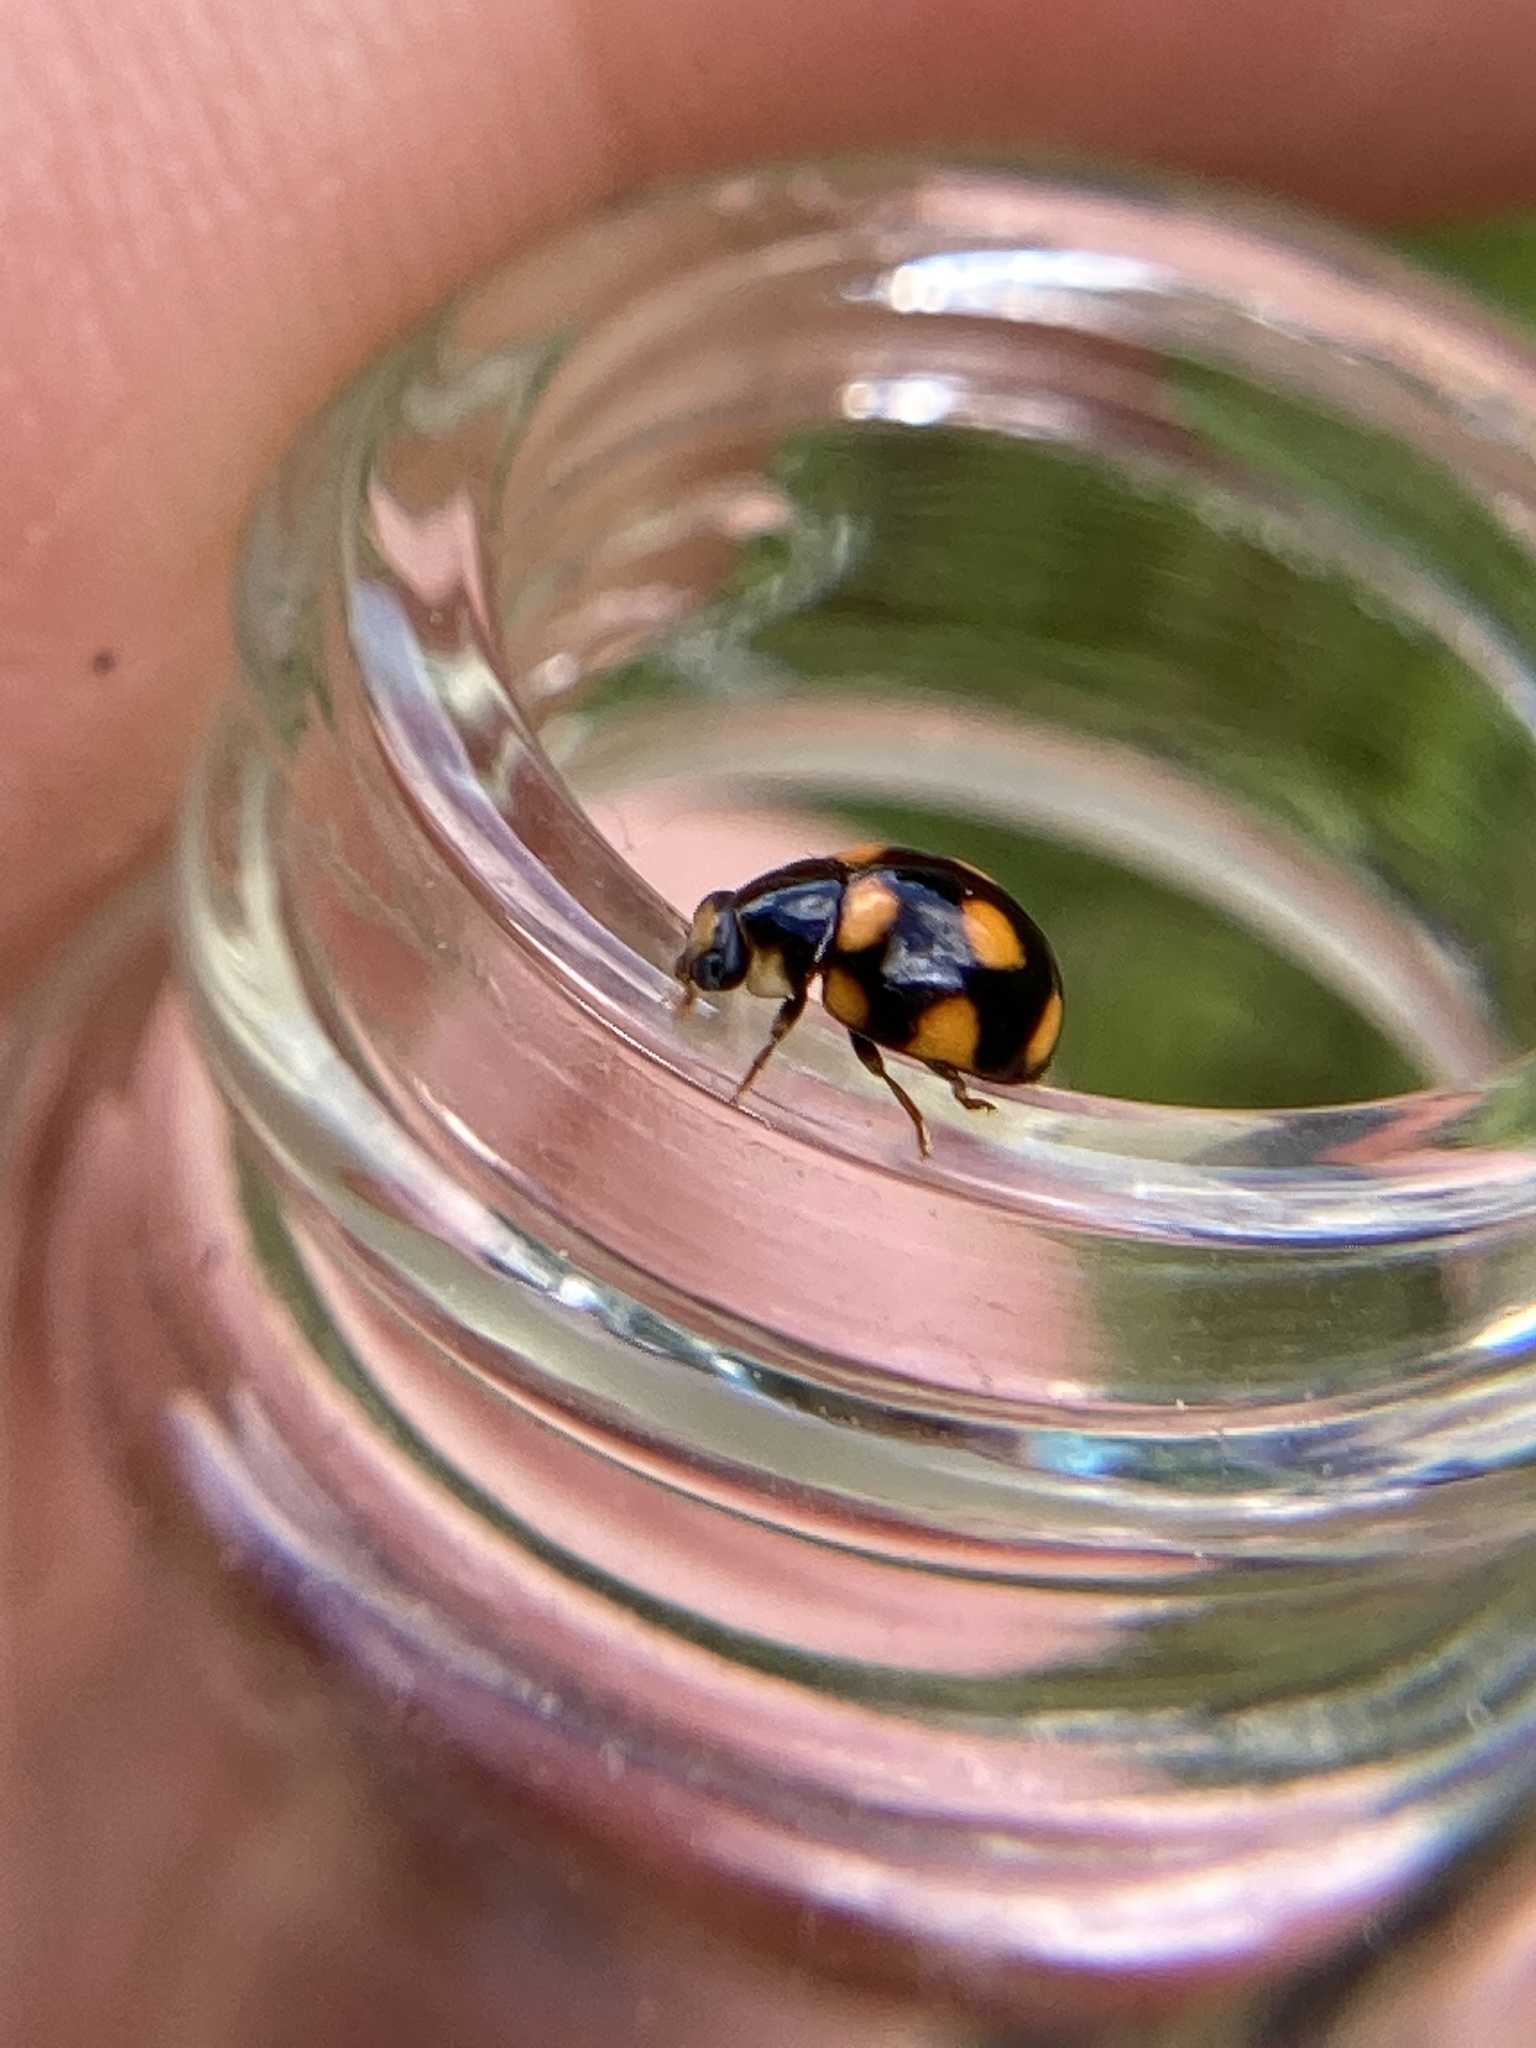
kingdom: Animalia
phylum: Arthropoda
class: Insecta
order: Coleoptera
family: Coccinellidae
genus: Brachiacantha
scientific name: Brachiacantha ursina
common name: Ursine spurleg lady beetle
